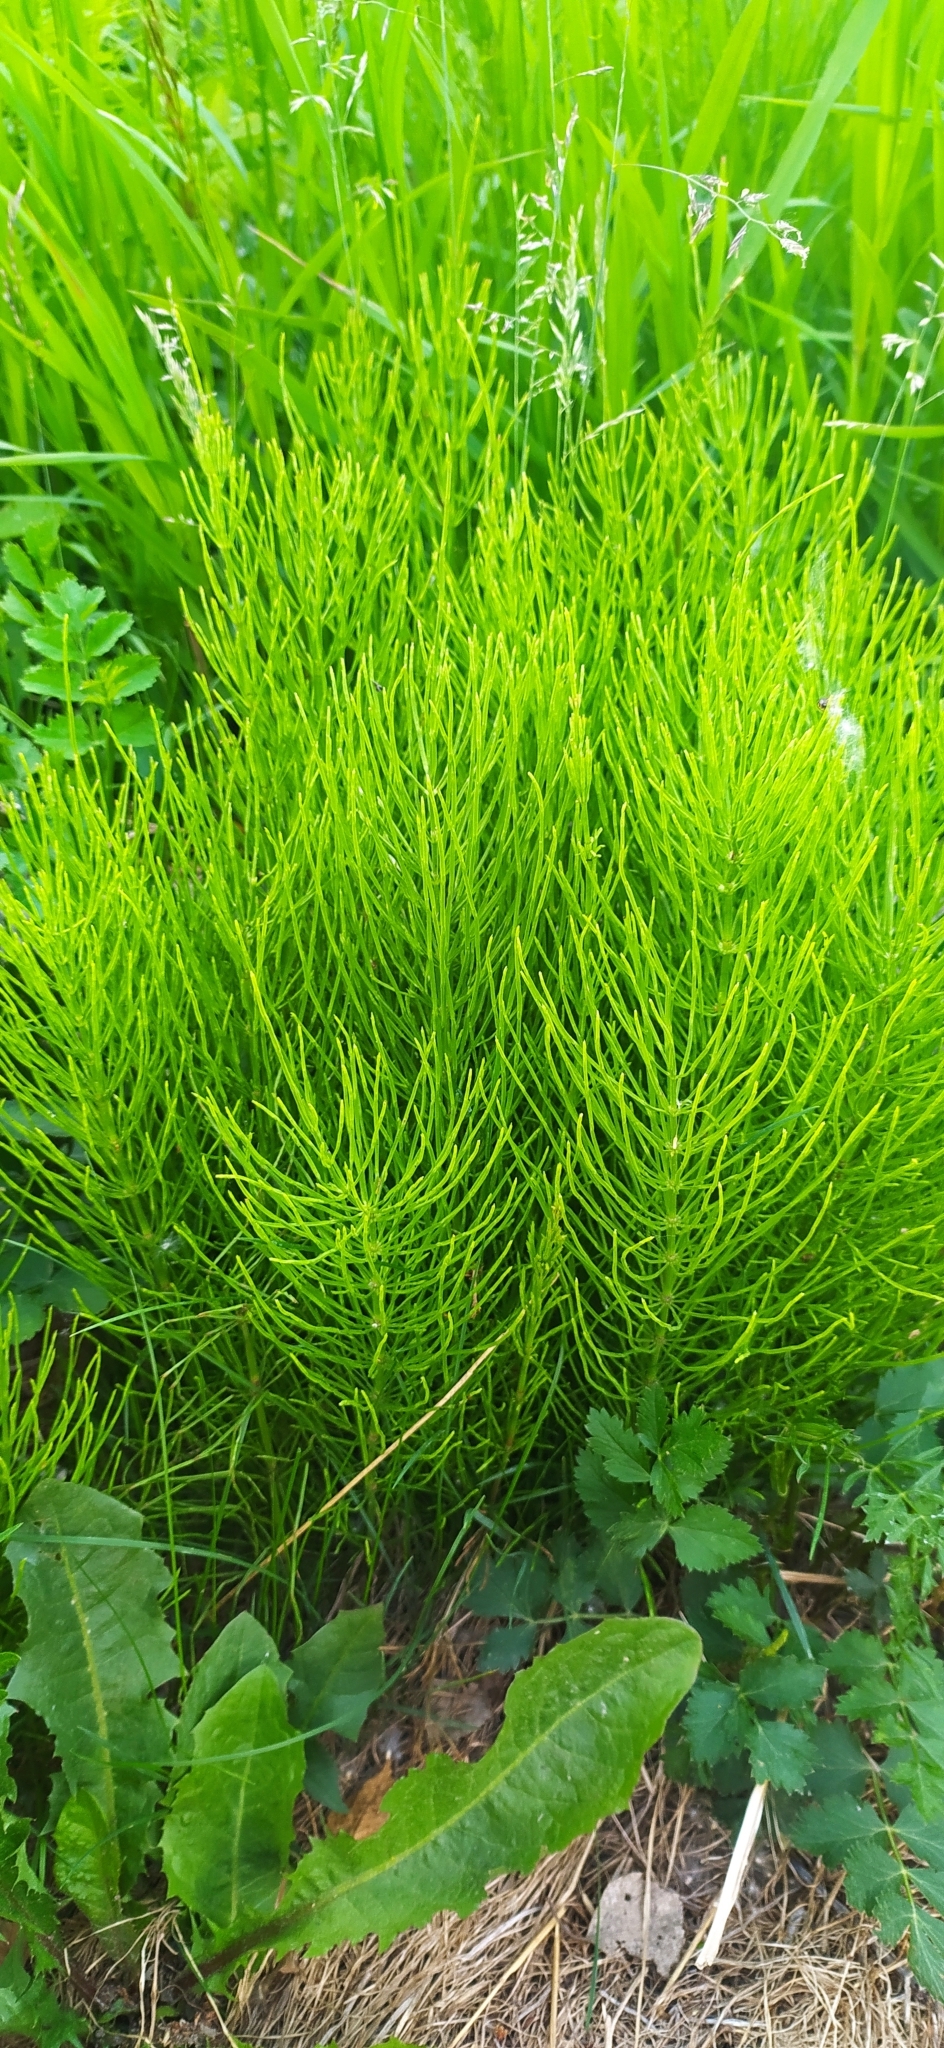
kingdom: Plantae
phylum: Tracheophyta
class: Polypodiopsida
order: Equisetales
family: Equisetaceae
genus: Equisetum
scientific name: Equisetum arvense
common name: Field horsetail
